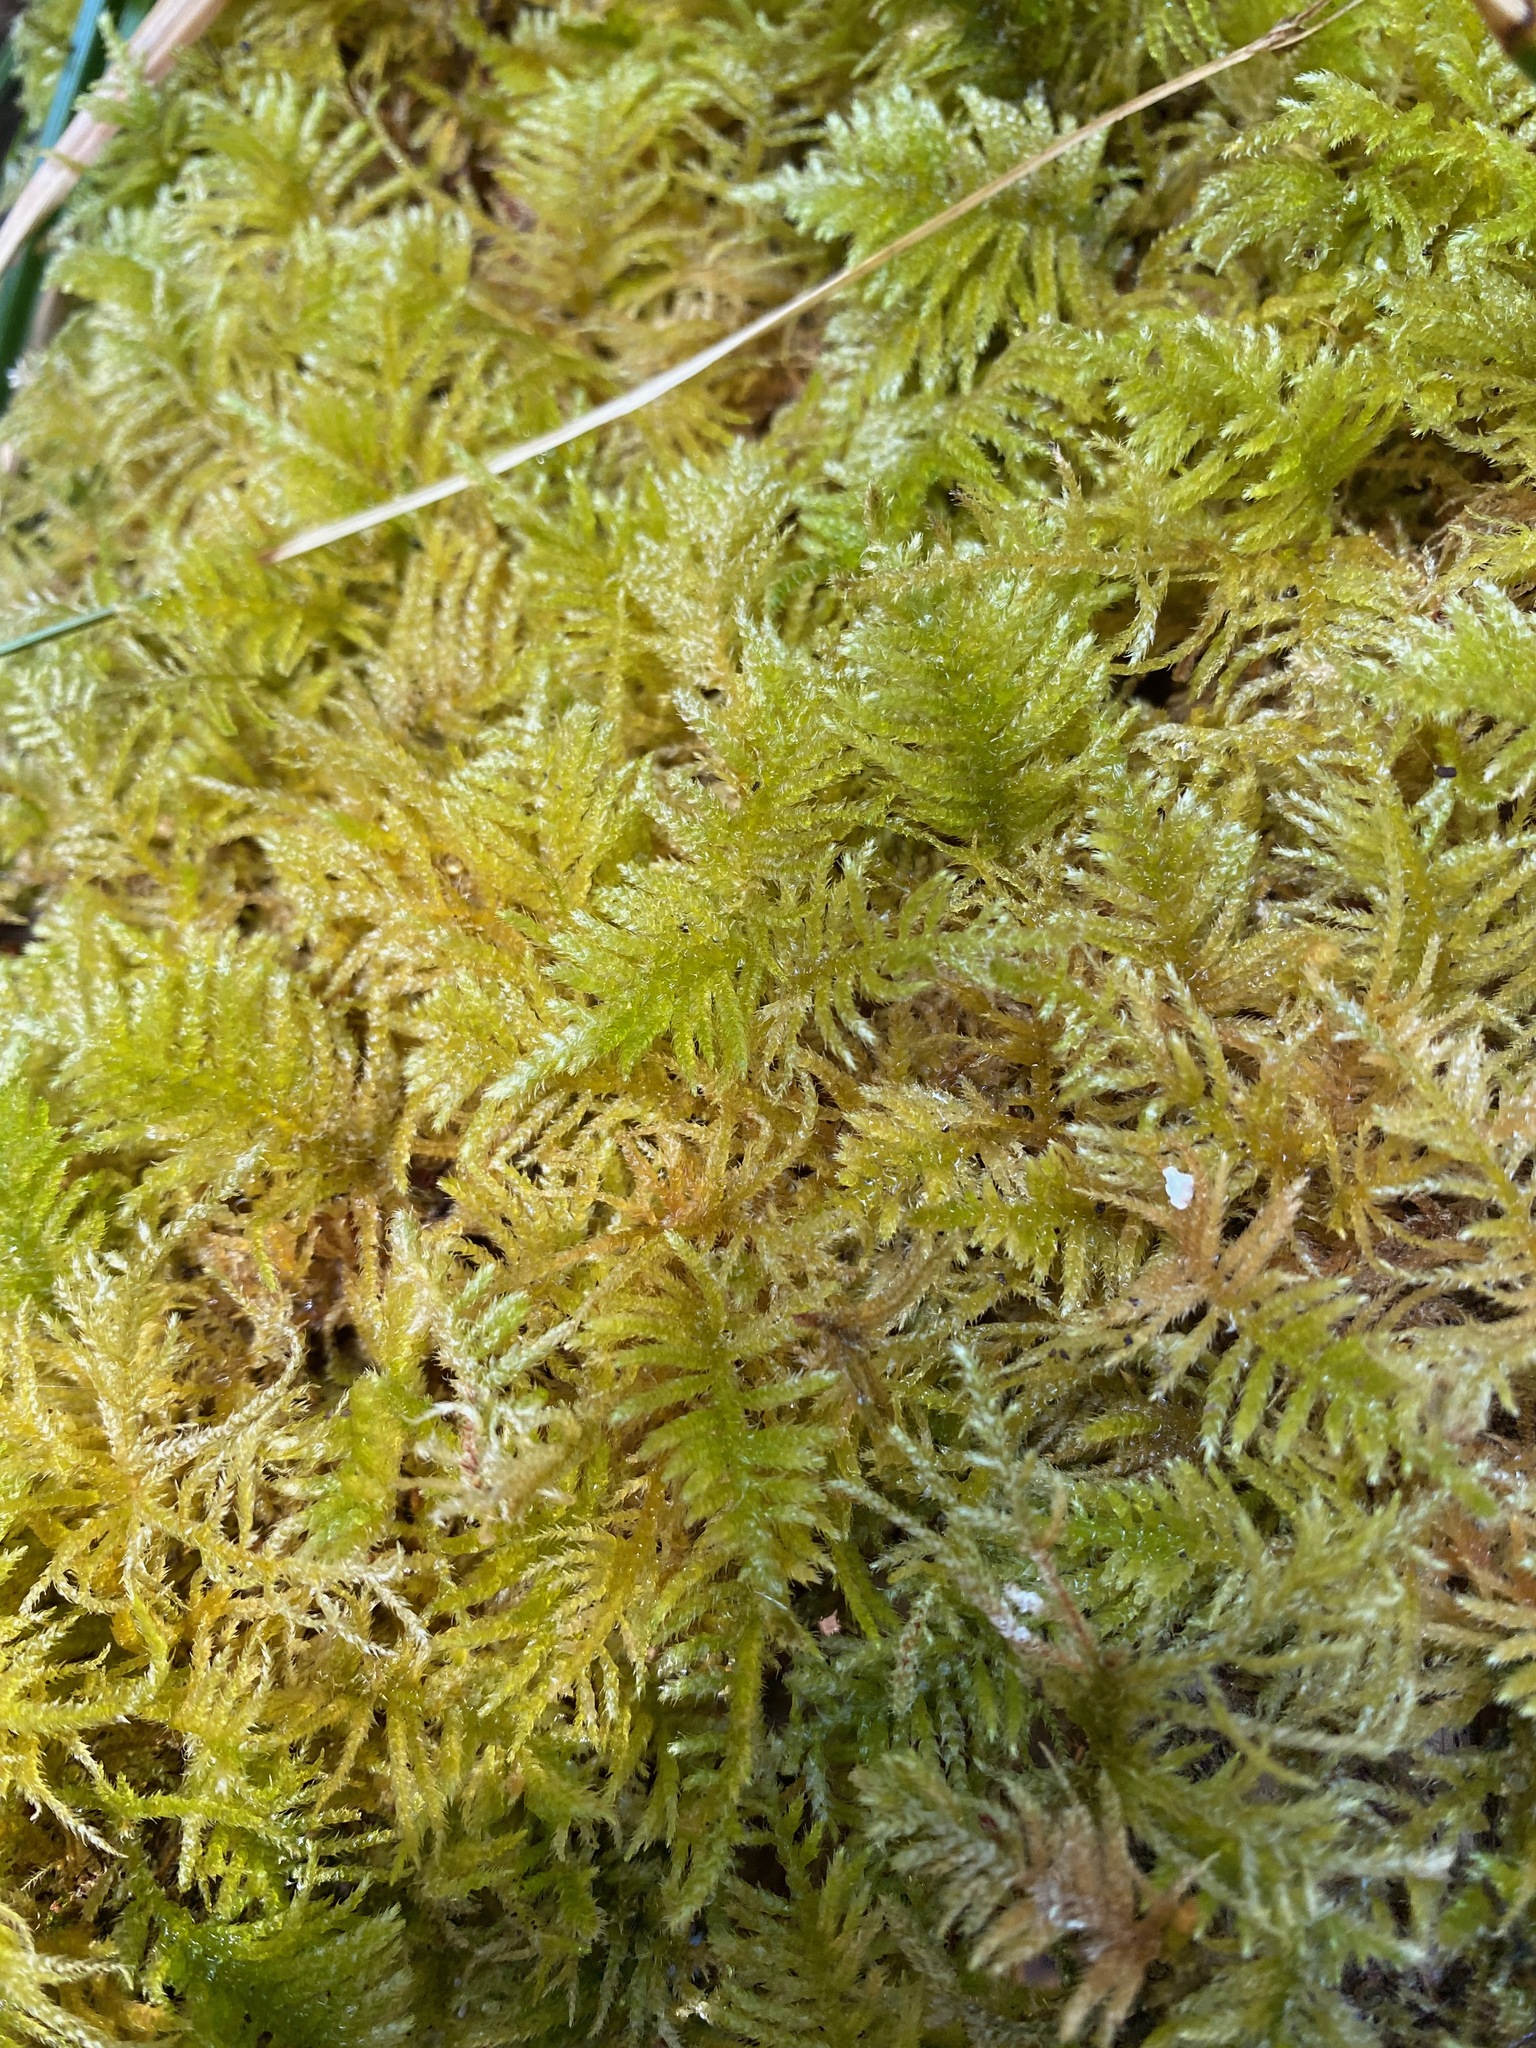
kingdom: Plantae
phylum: Bryophyta
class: Bryopsida
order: Hypnales
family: Brachytheciaceae
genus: Kindbergia
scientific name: Kindbergia oregana
